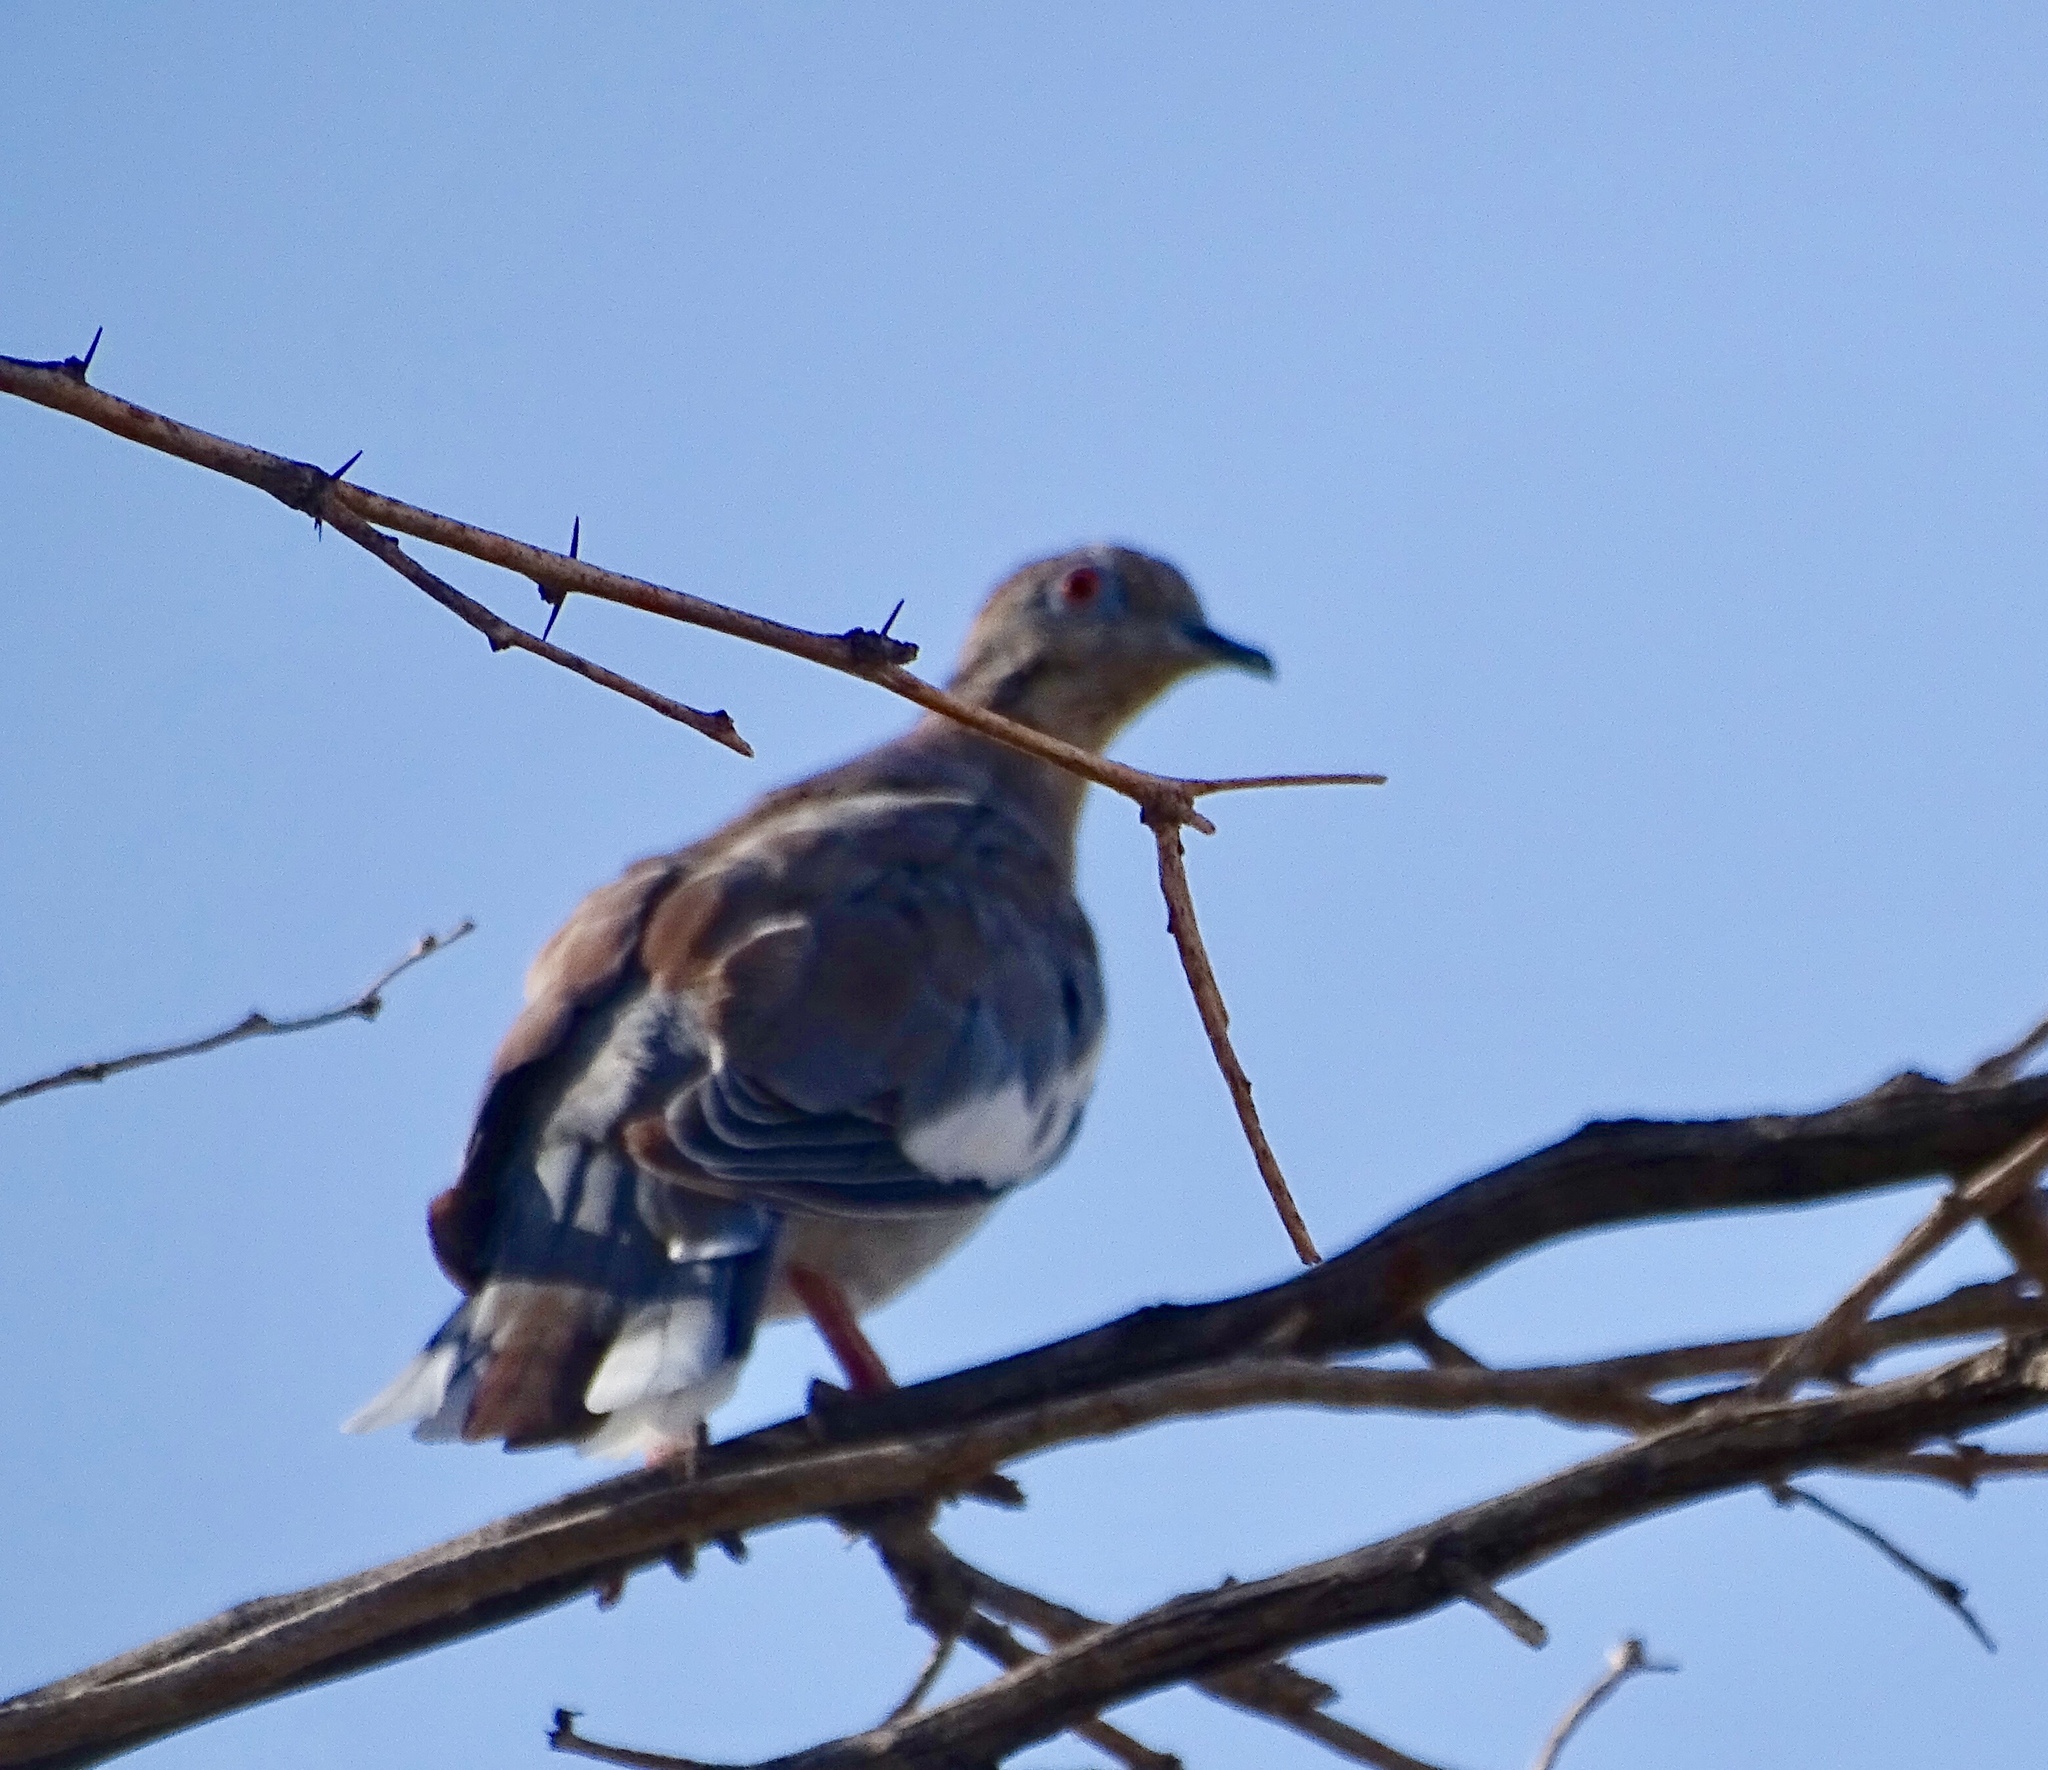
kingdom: Animalia
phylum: Chordata
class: Aves
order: Columbiformes
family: Columbidae
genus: Zenaida
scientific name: Zenaida asiatica
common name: White-winged dove
